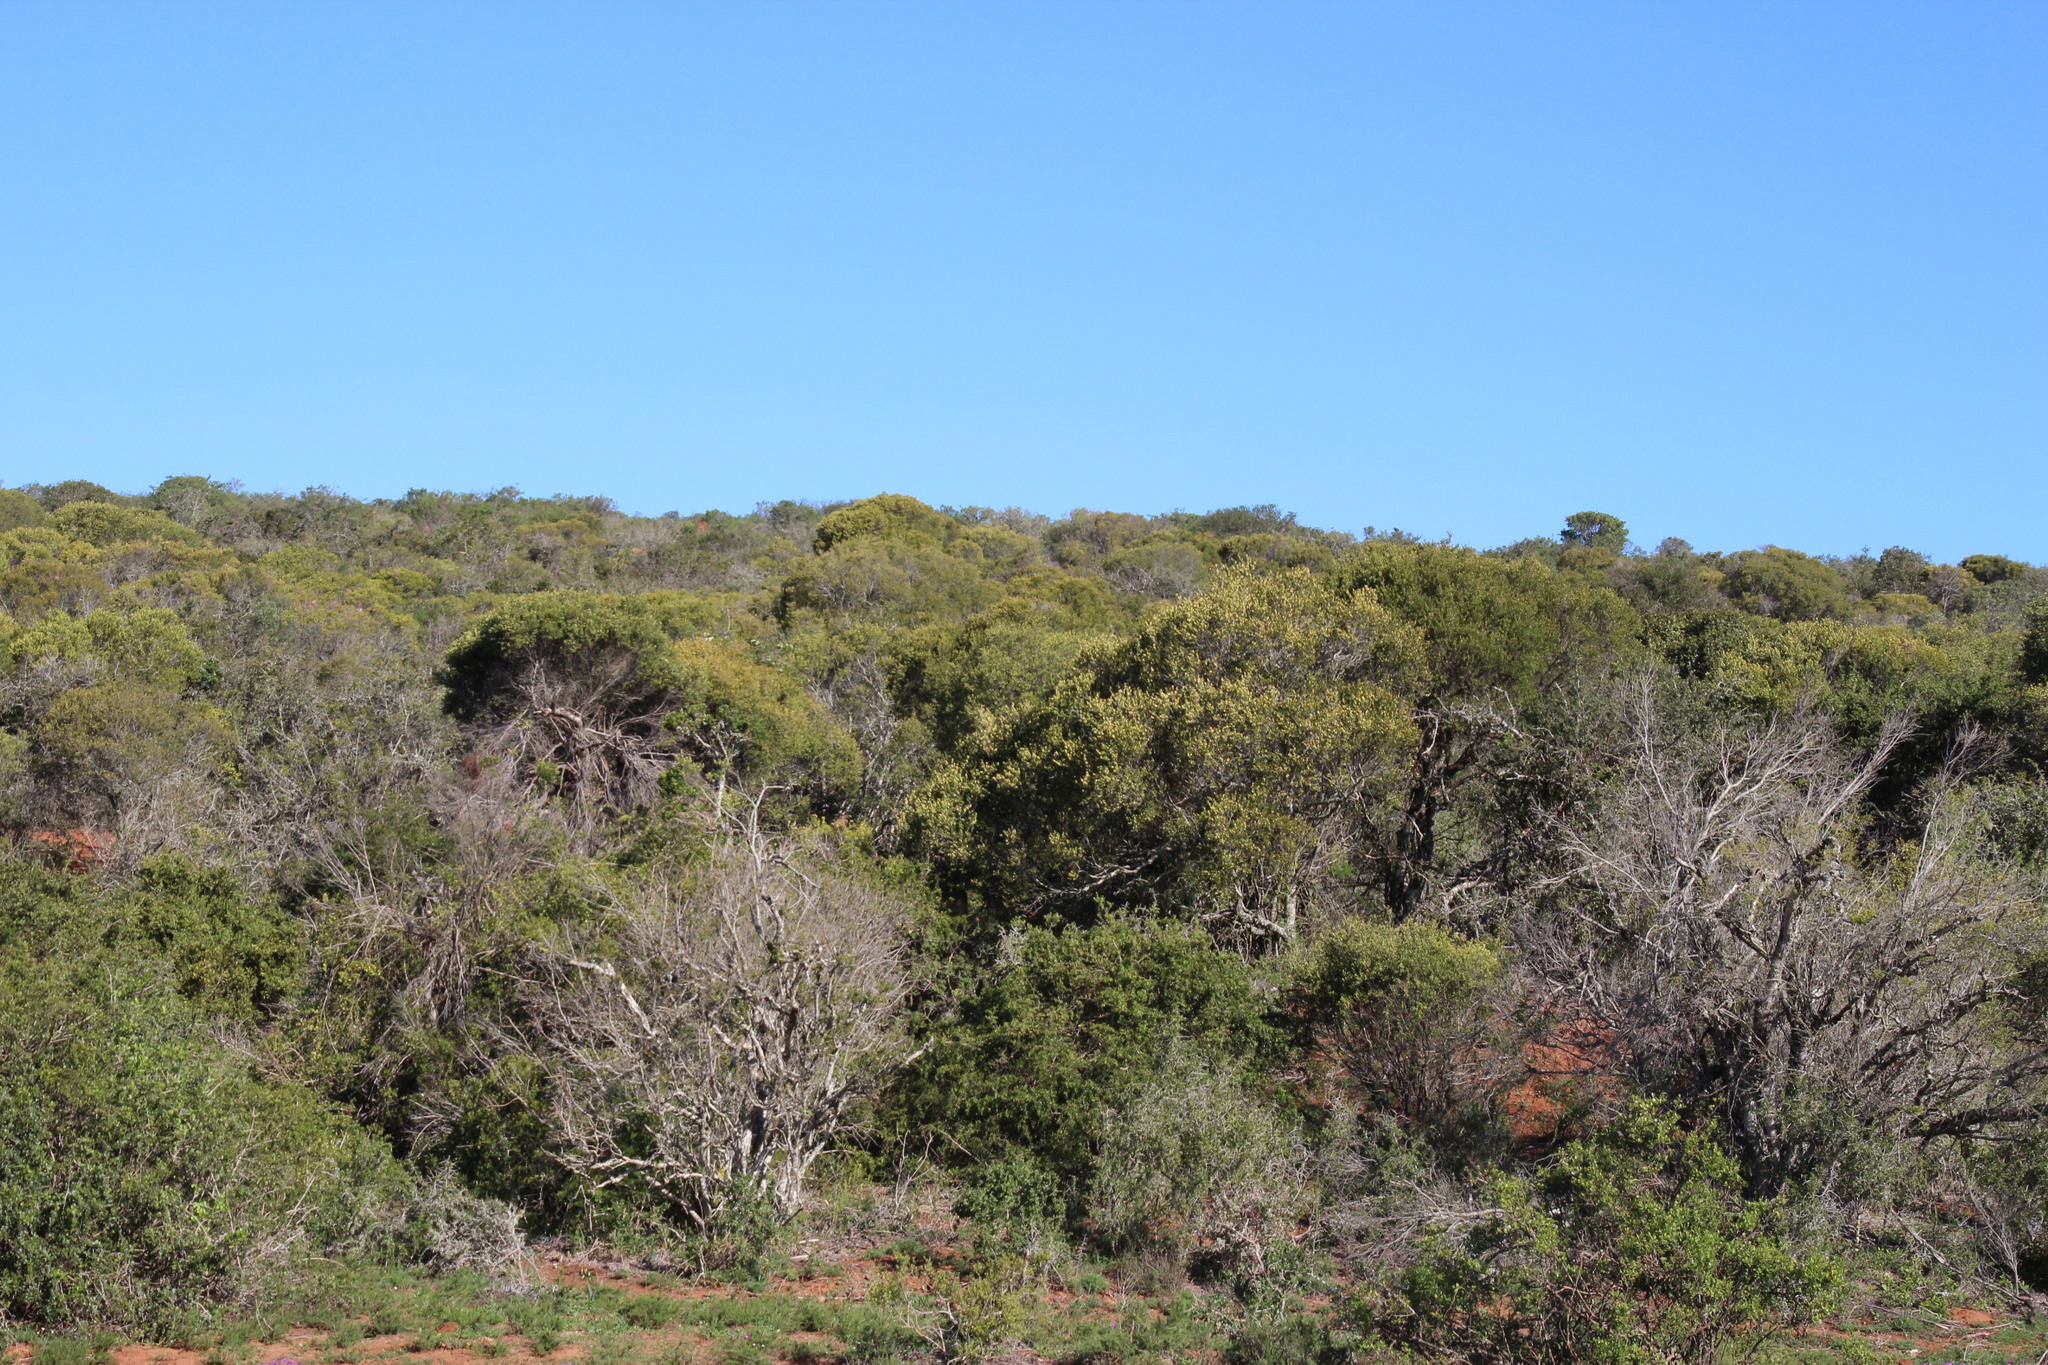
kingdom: Plantae
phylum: Tracheophyta
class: Magnoliopsida
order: Lamiales
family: Oleaceae
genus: Olea
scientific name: Olea europaea
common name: Olive
